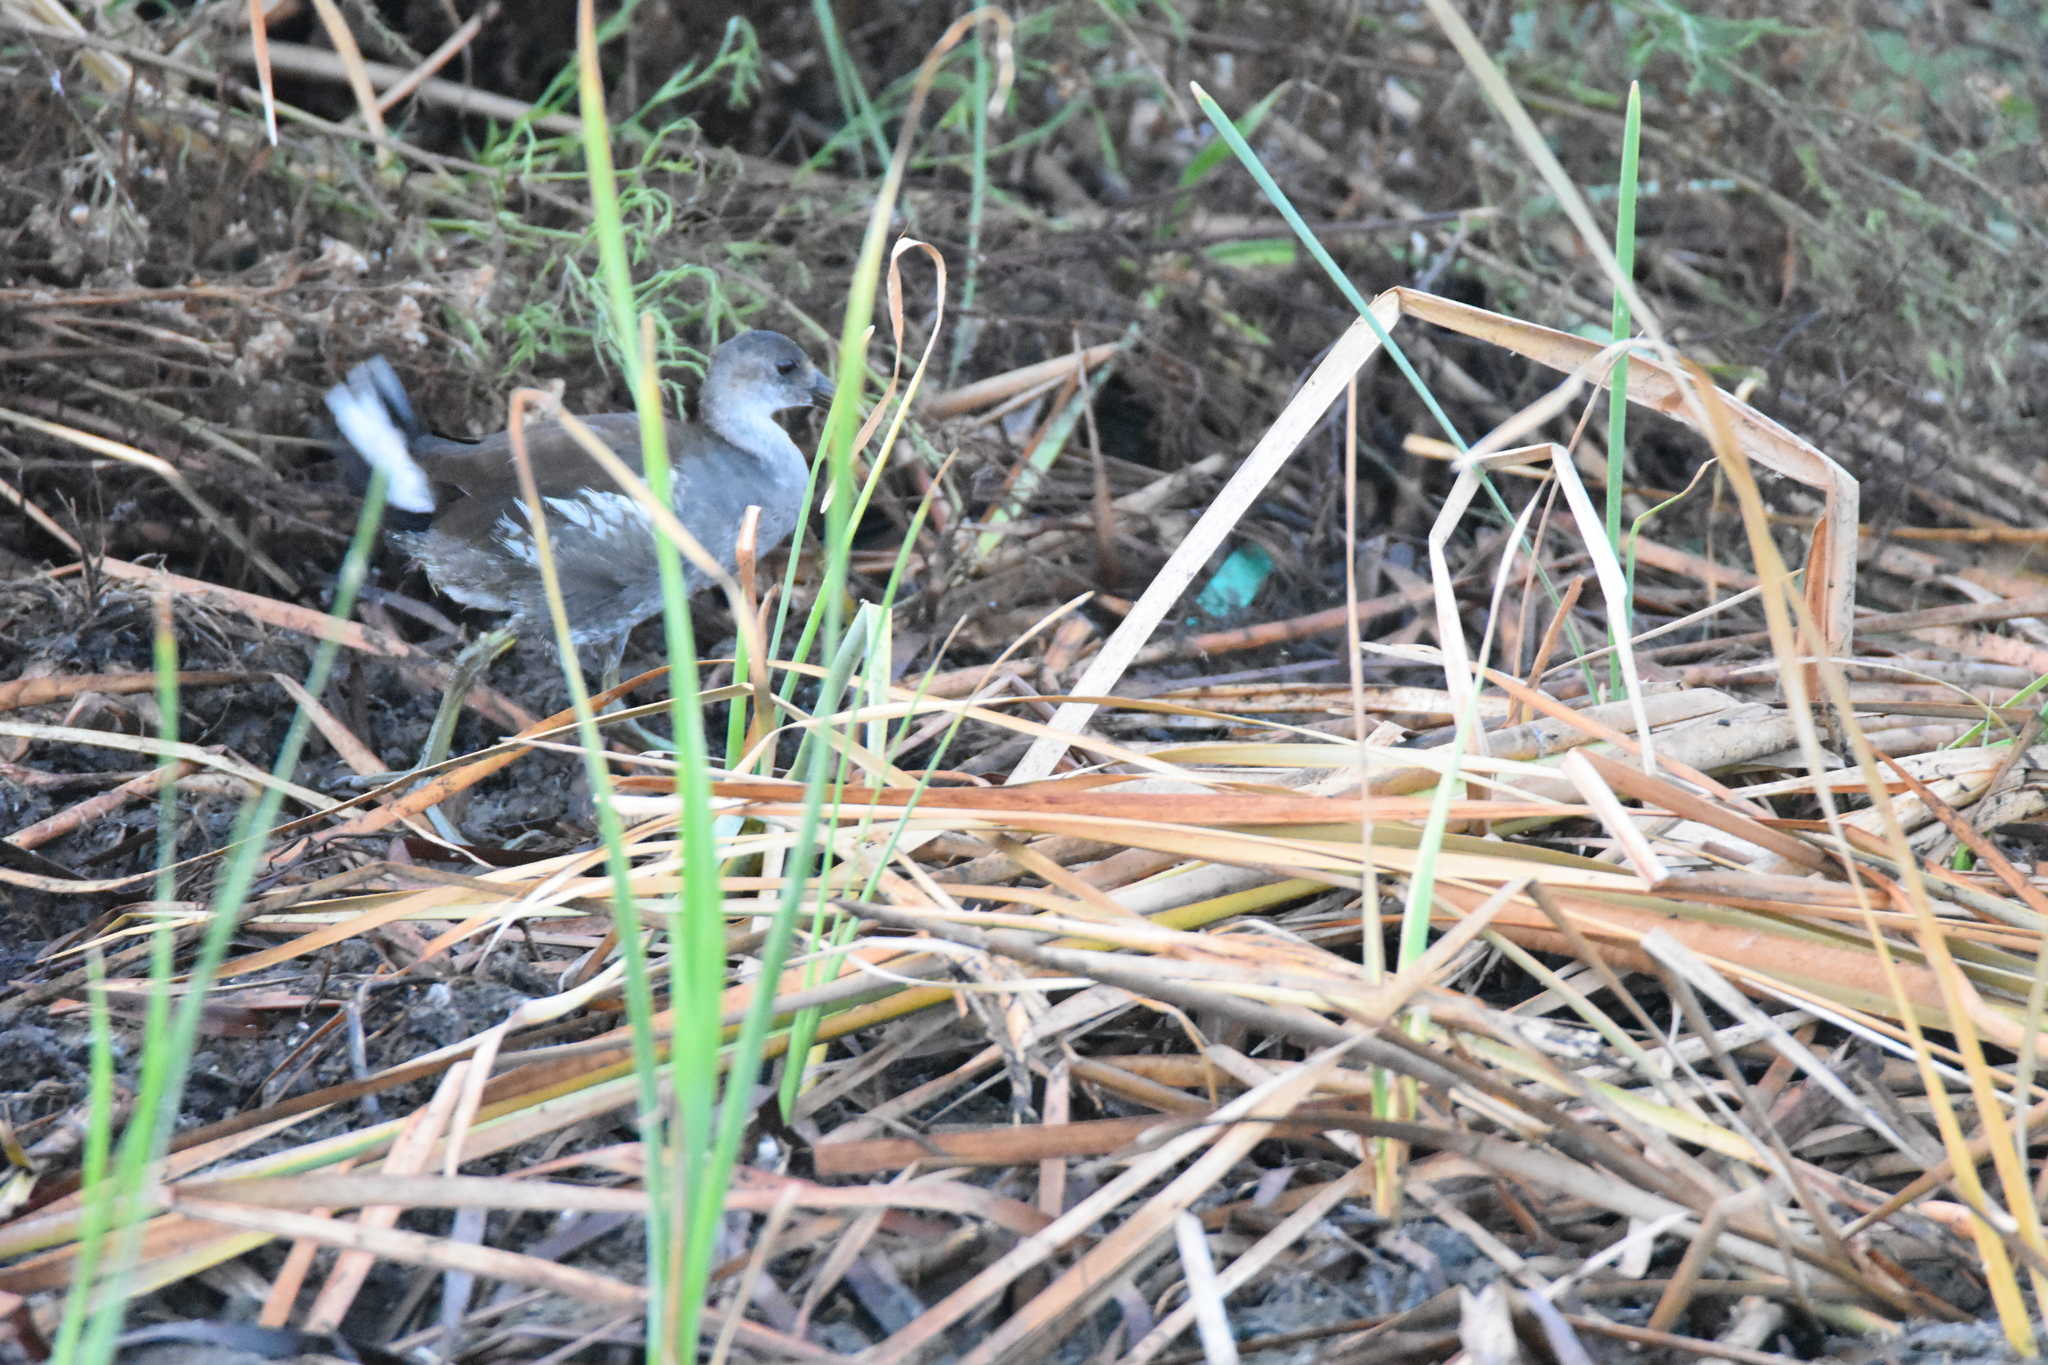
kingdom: Animalia
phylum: Chordata
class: Aves
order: Gruiformes
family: Rallidae
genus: Gallinula
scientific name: Gallinula chloropus
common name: Common moorhen
